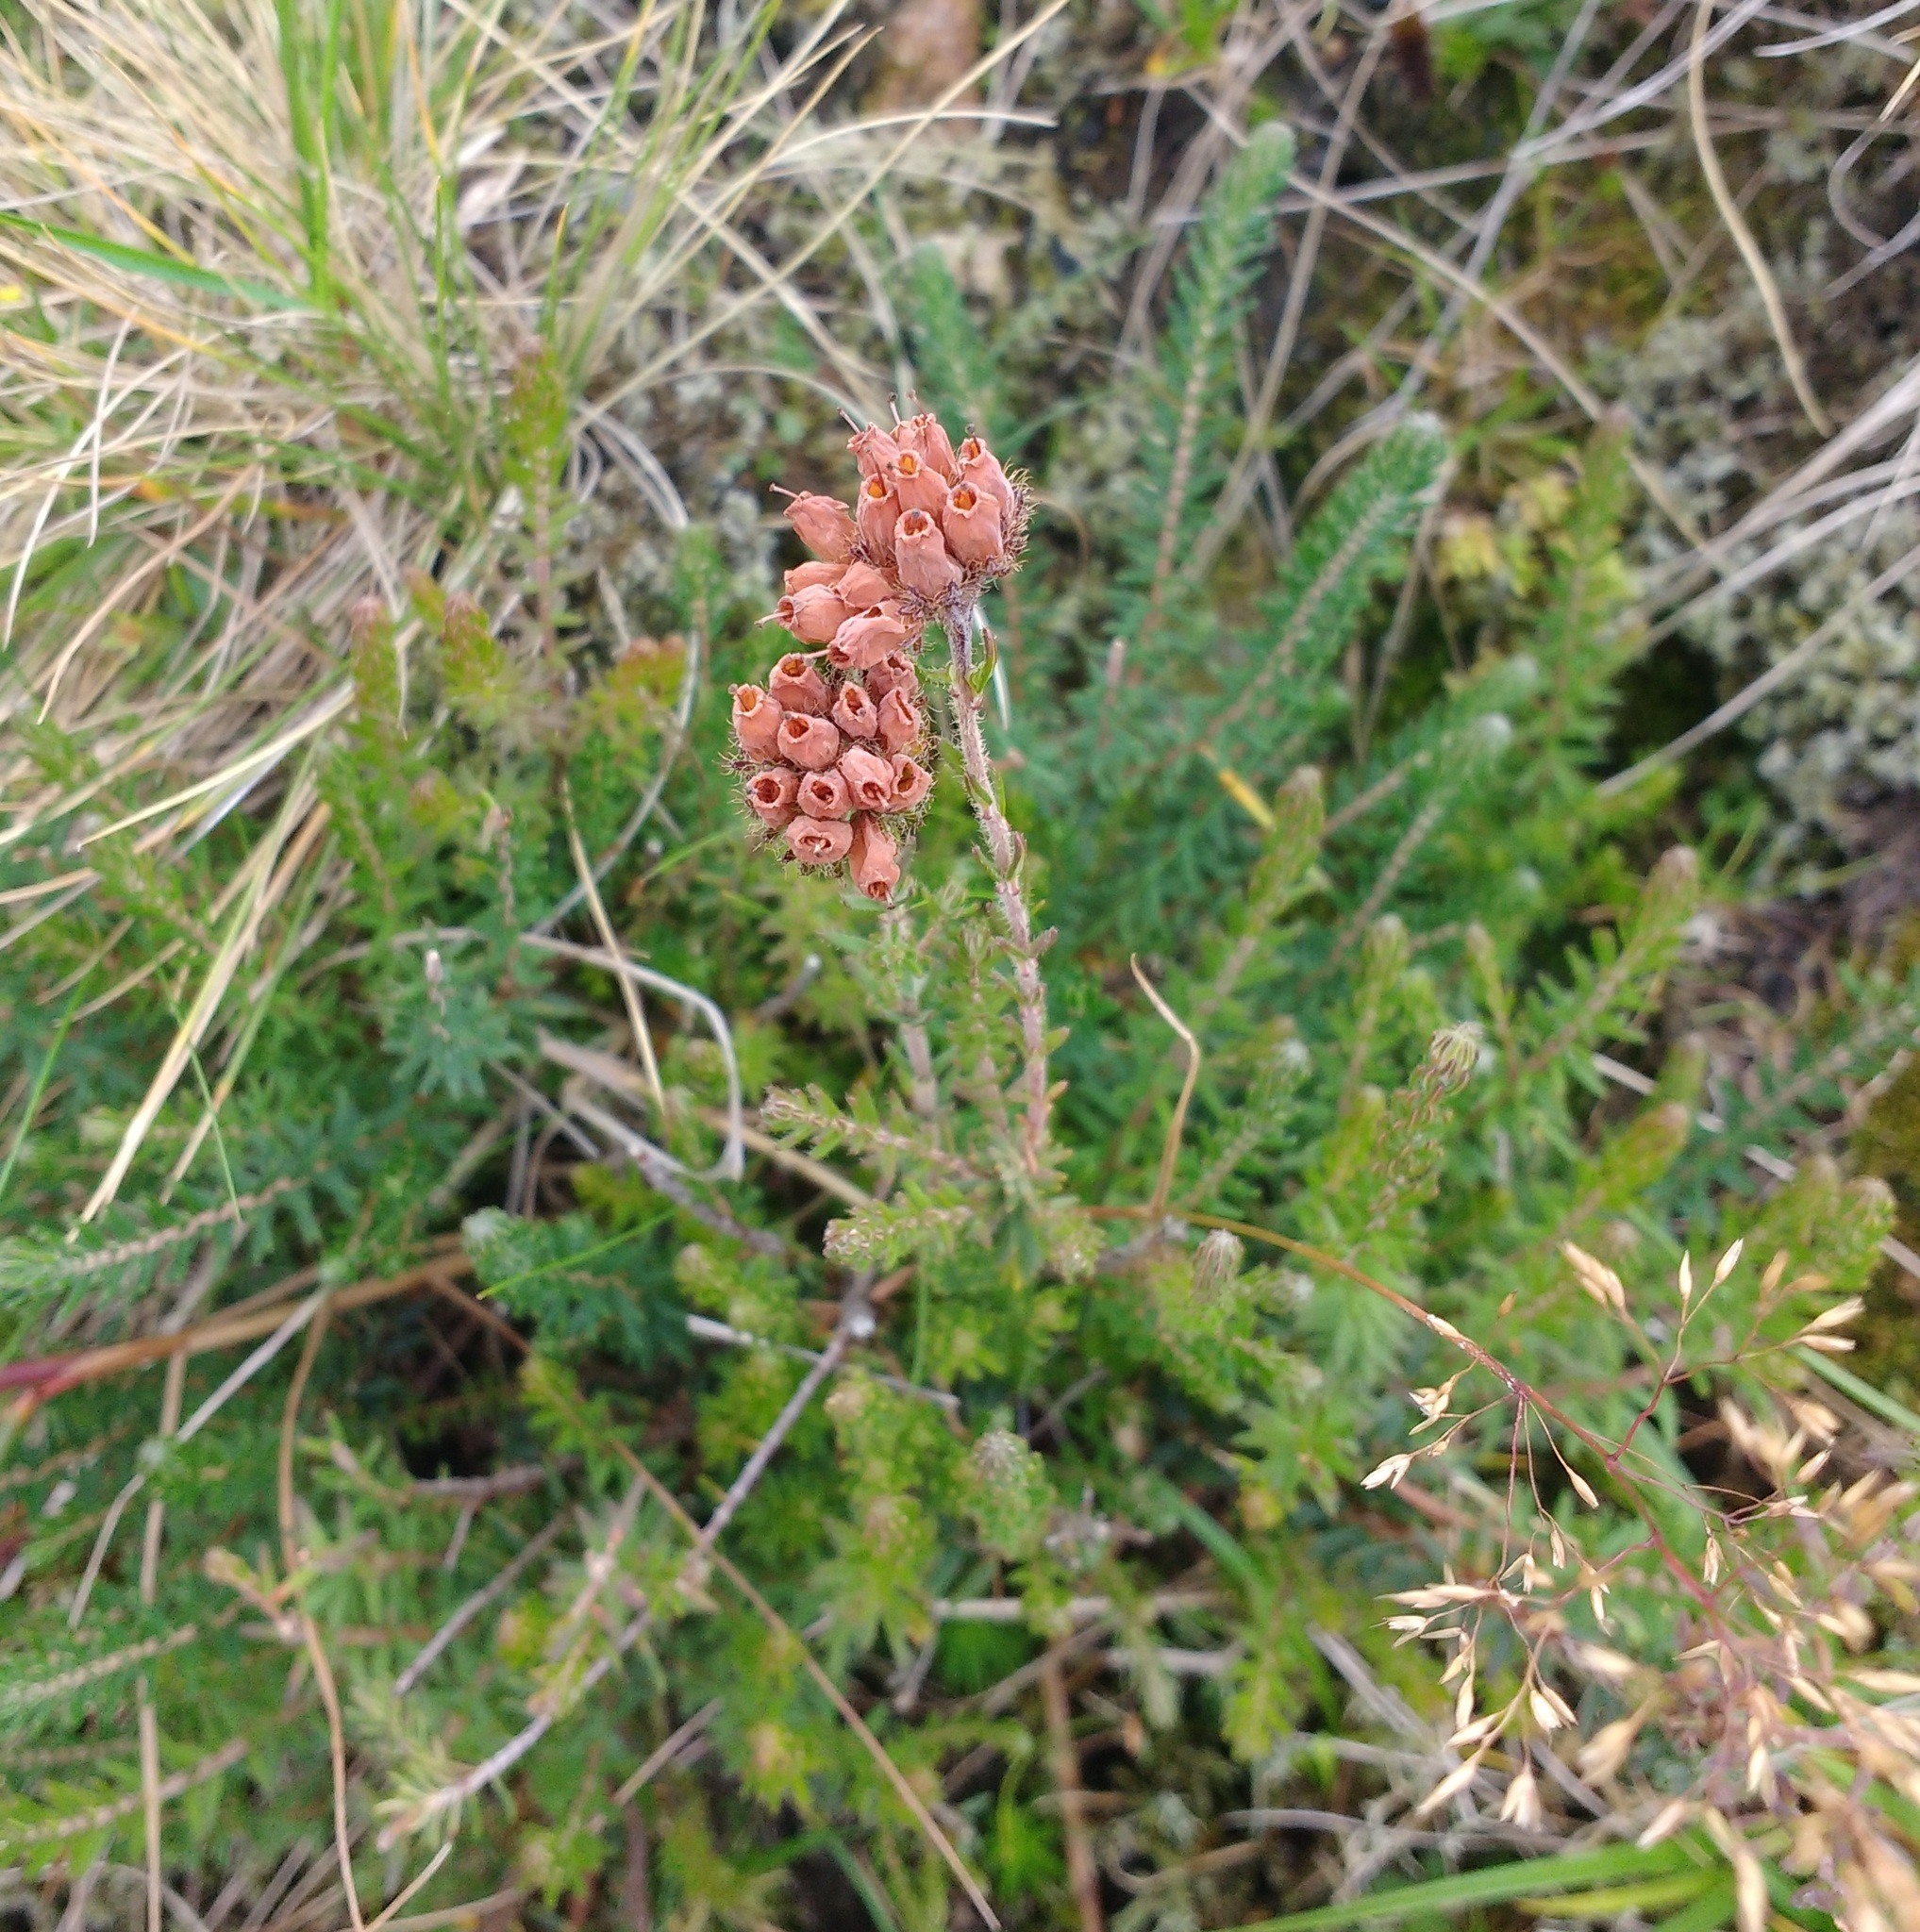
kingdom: Plantae
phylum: Tracheophyta
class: Magnoliopsida
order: Ericales
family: Ericaceae
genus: Erica
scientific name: Erica tetralix
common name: Cross-leaved heath
